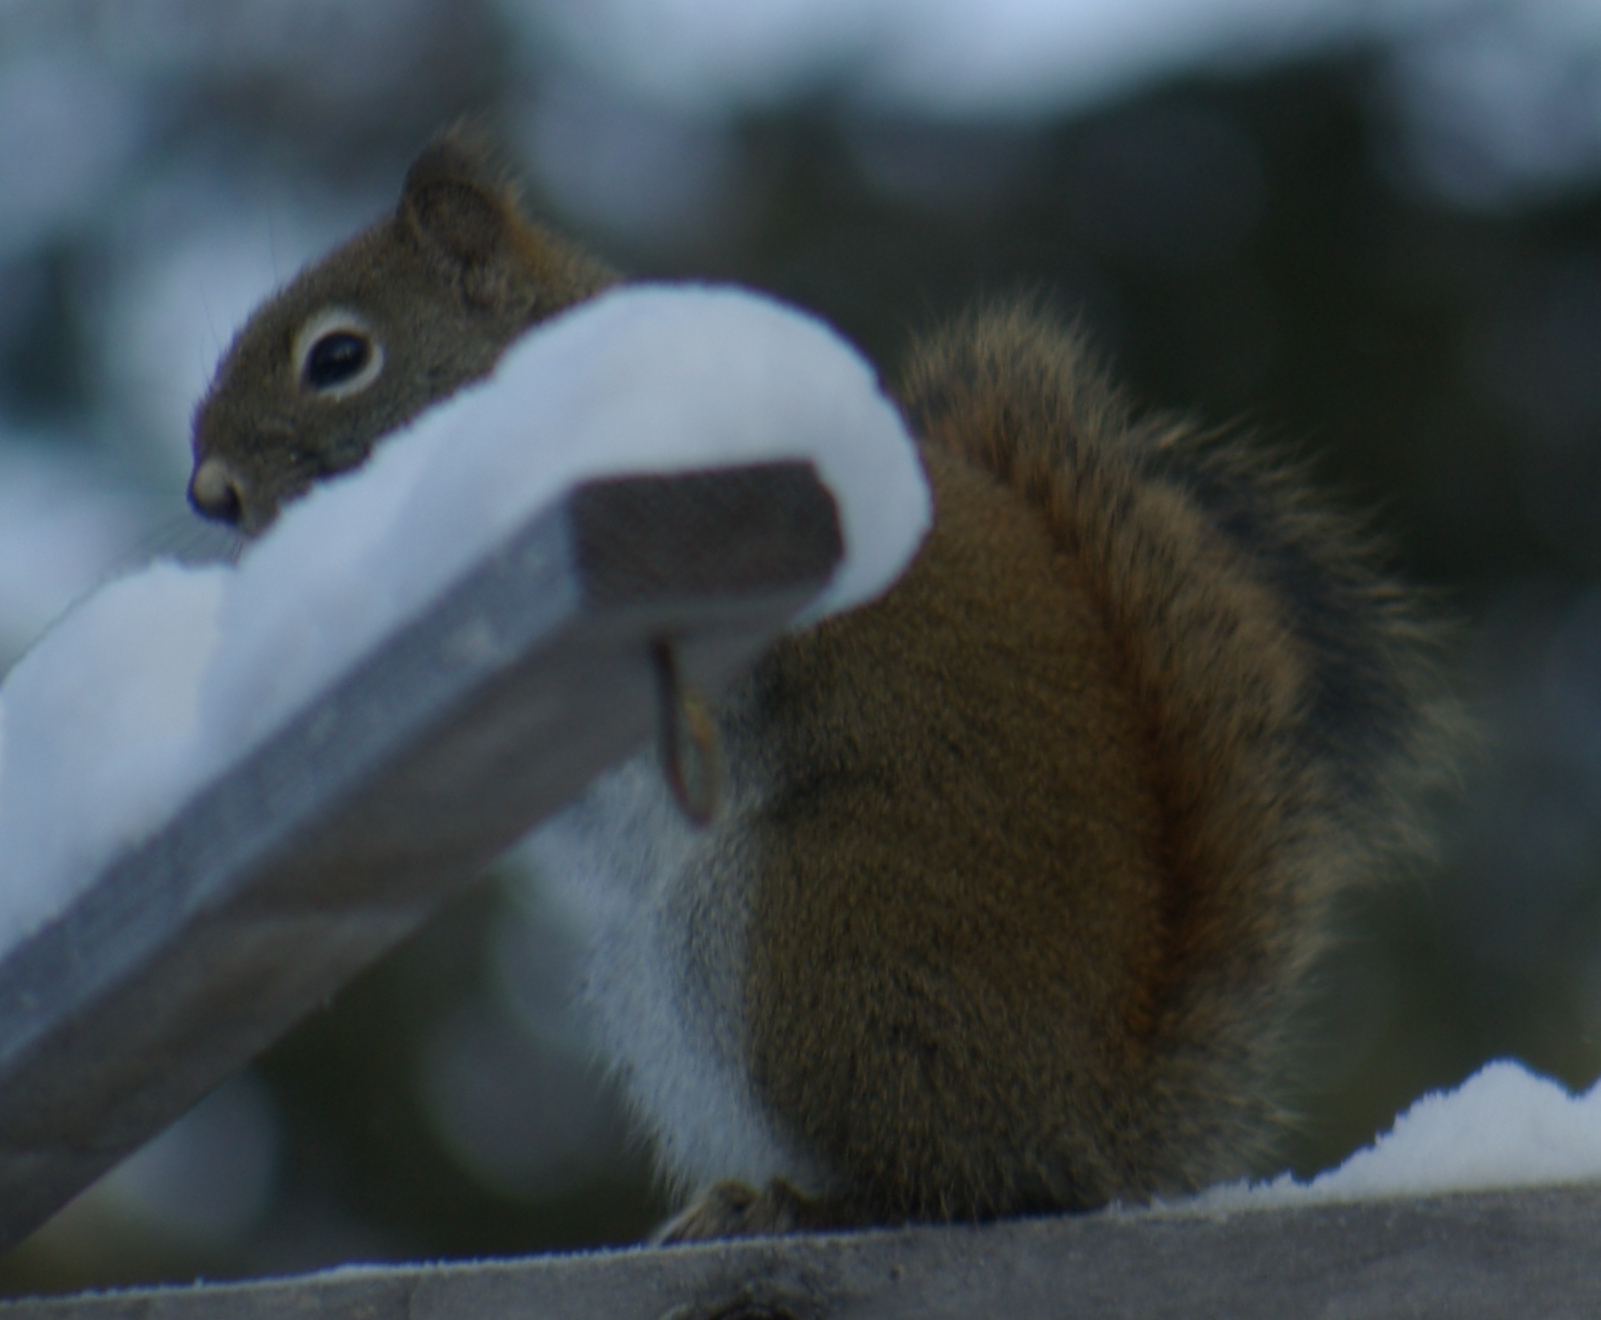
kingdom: Animalia
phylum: Chordata
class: Mammalia
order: Rodentia
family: Sciuridae
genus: Tamiasciurus
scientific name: Tamiasciurus hudsonicus
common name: Red squirrel
